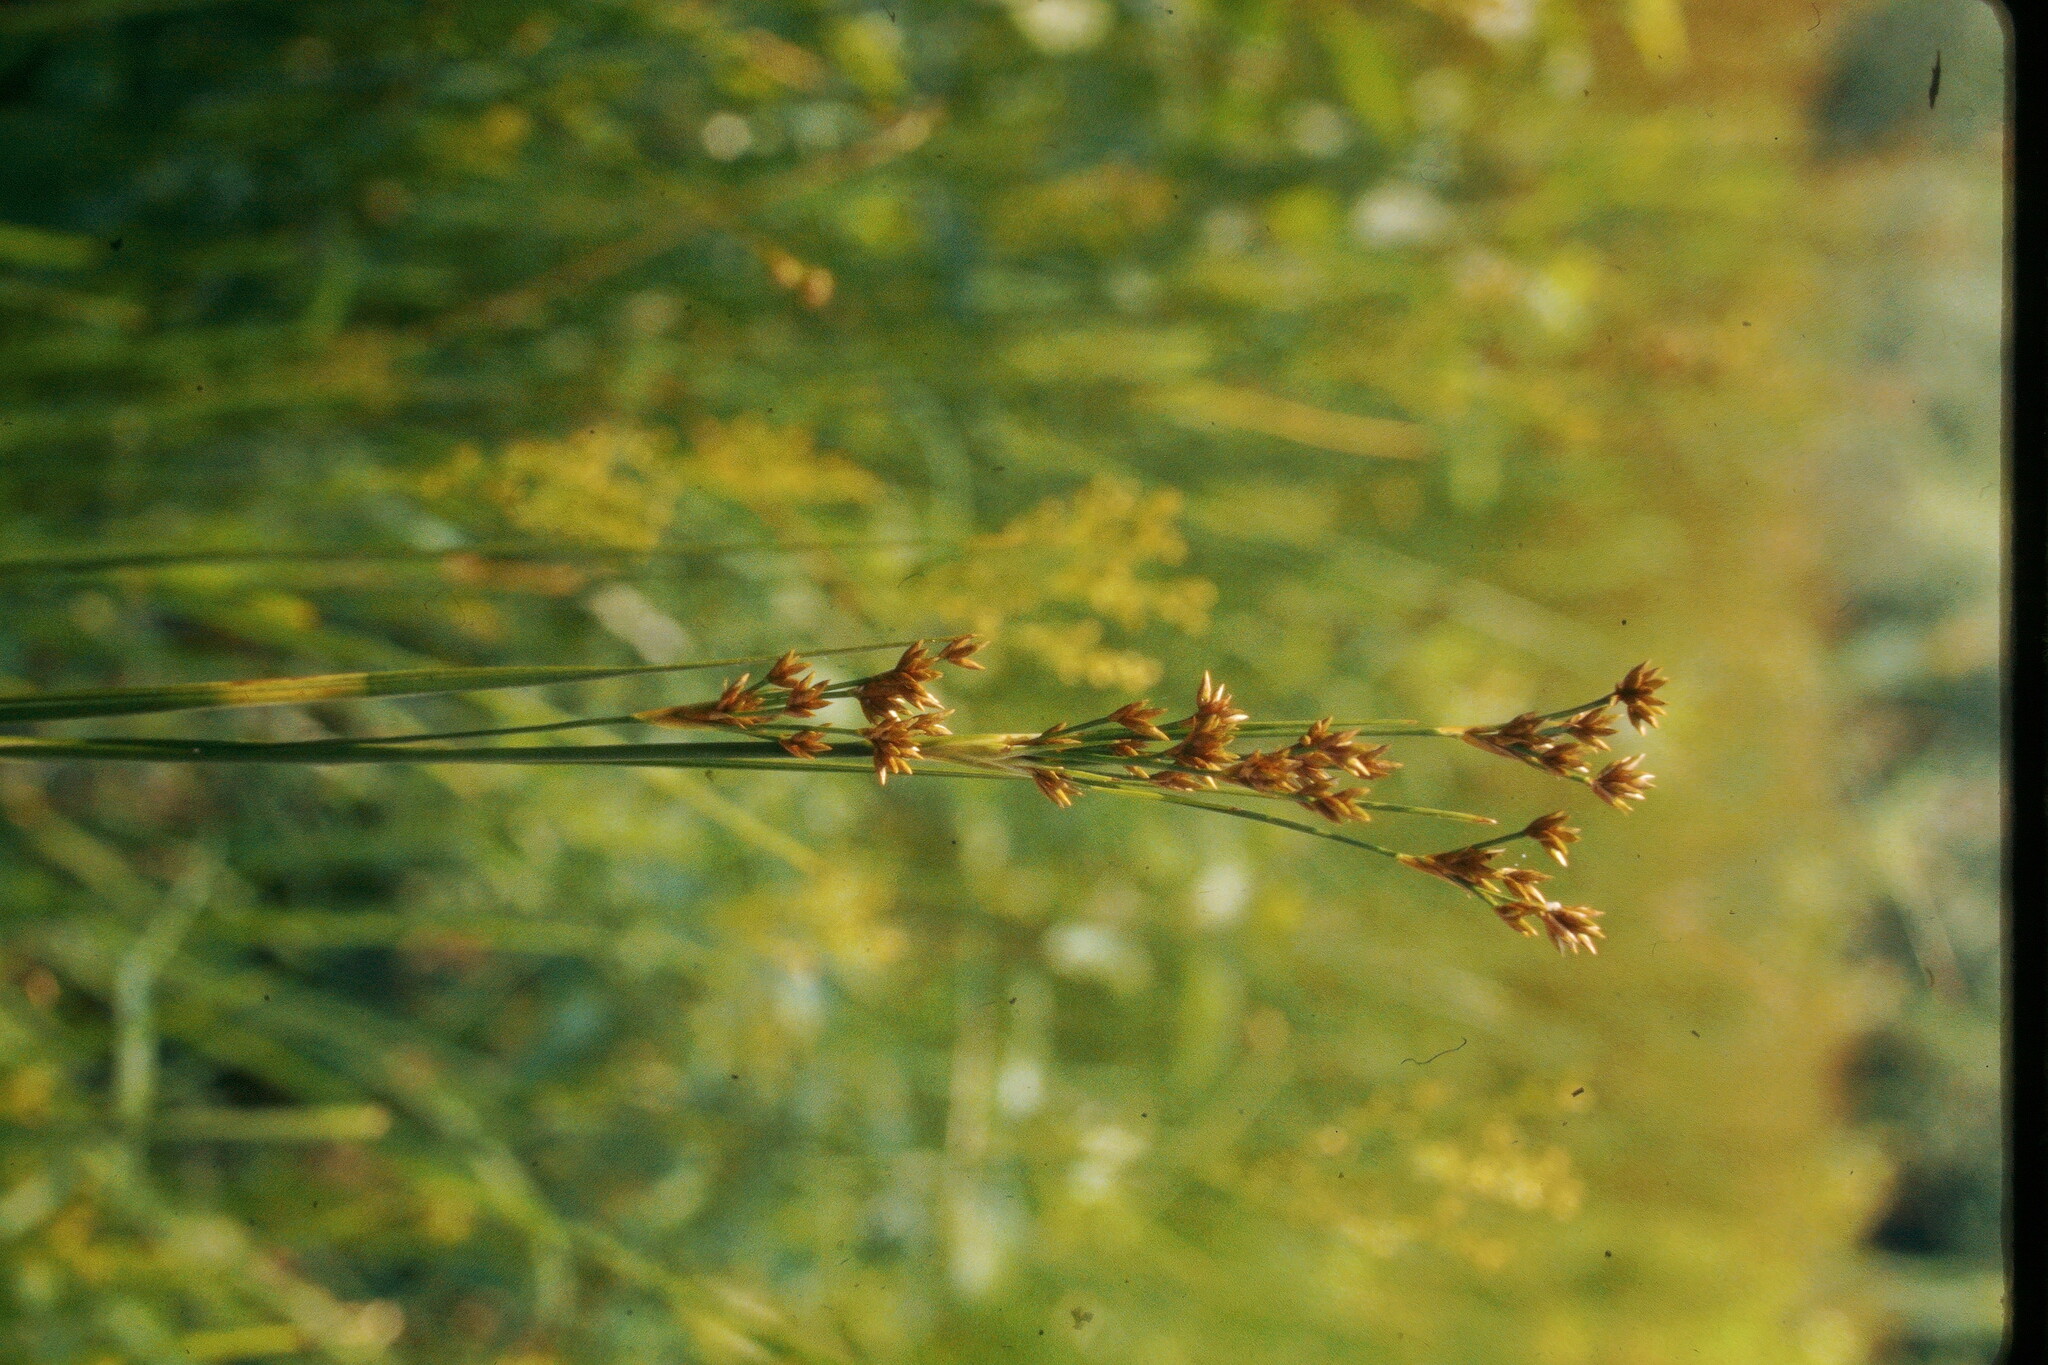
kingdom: Plantae
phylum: Tracheophyta
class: Liliopsida
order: Poales
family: Cyperaceae
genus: Cladium
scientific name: Cladium mariscoides
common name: Smooth sawgrass
